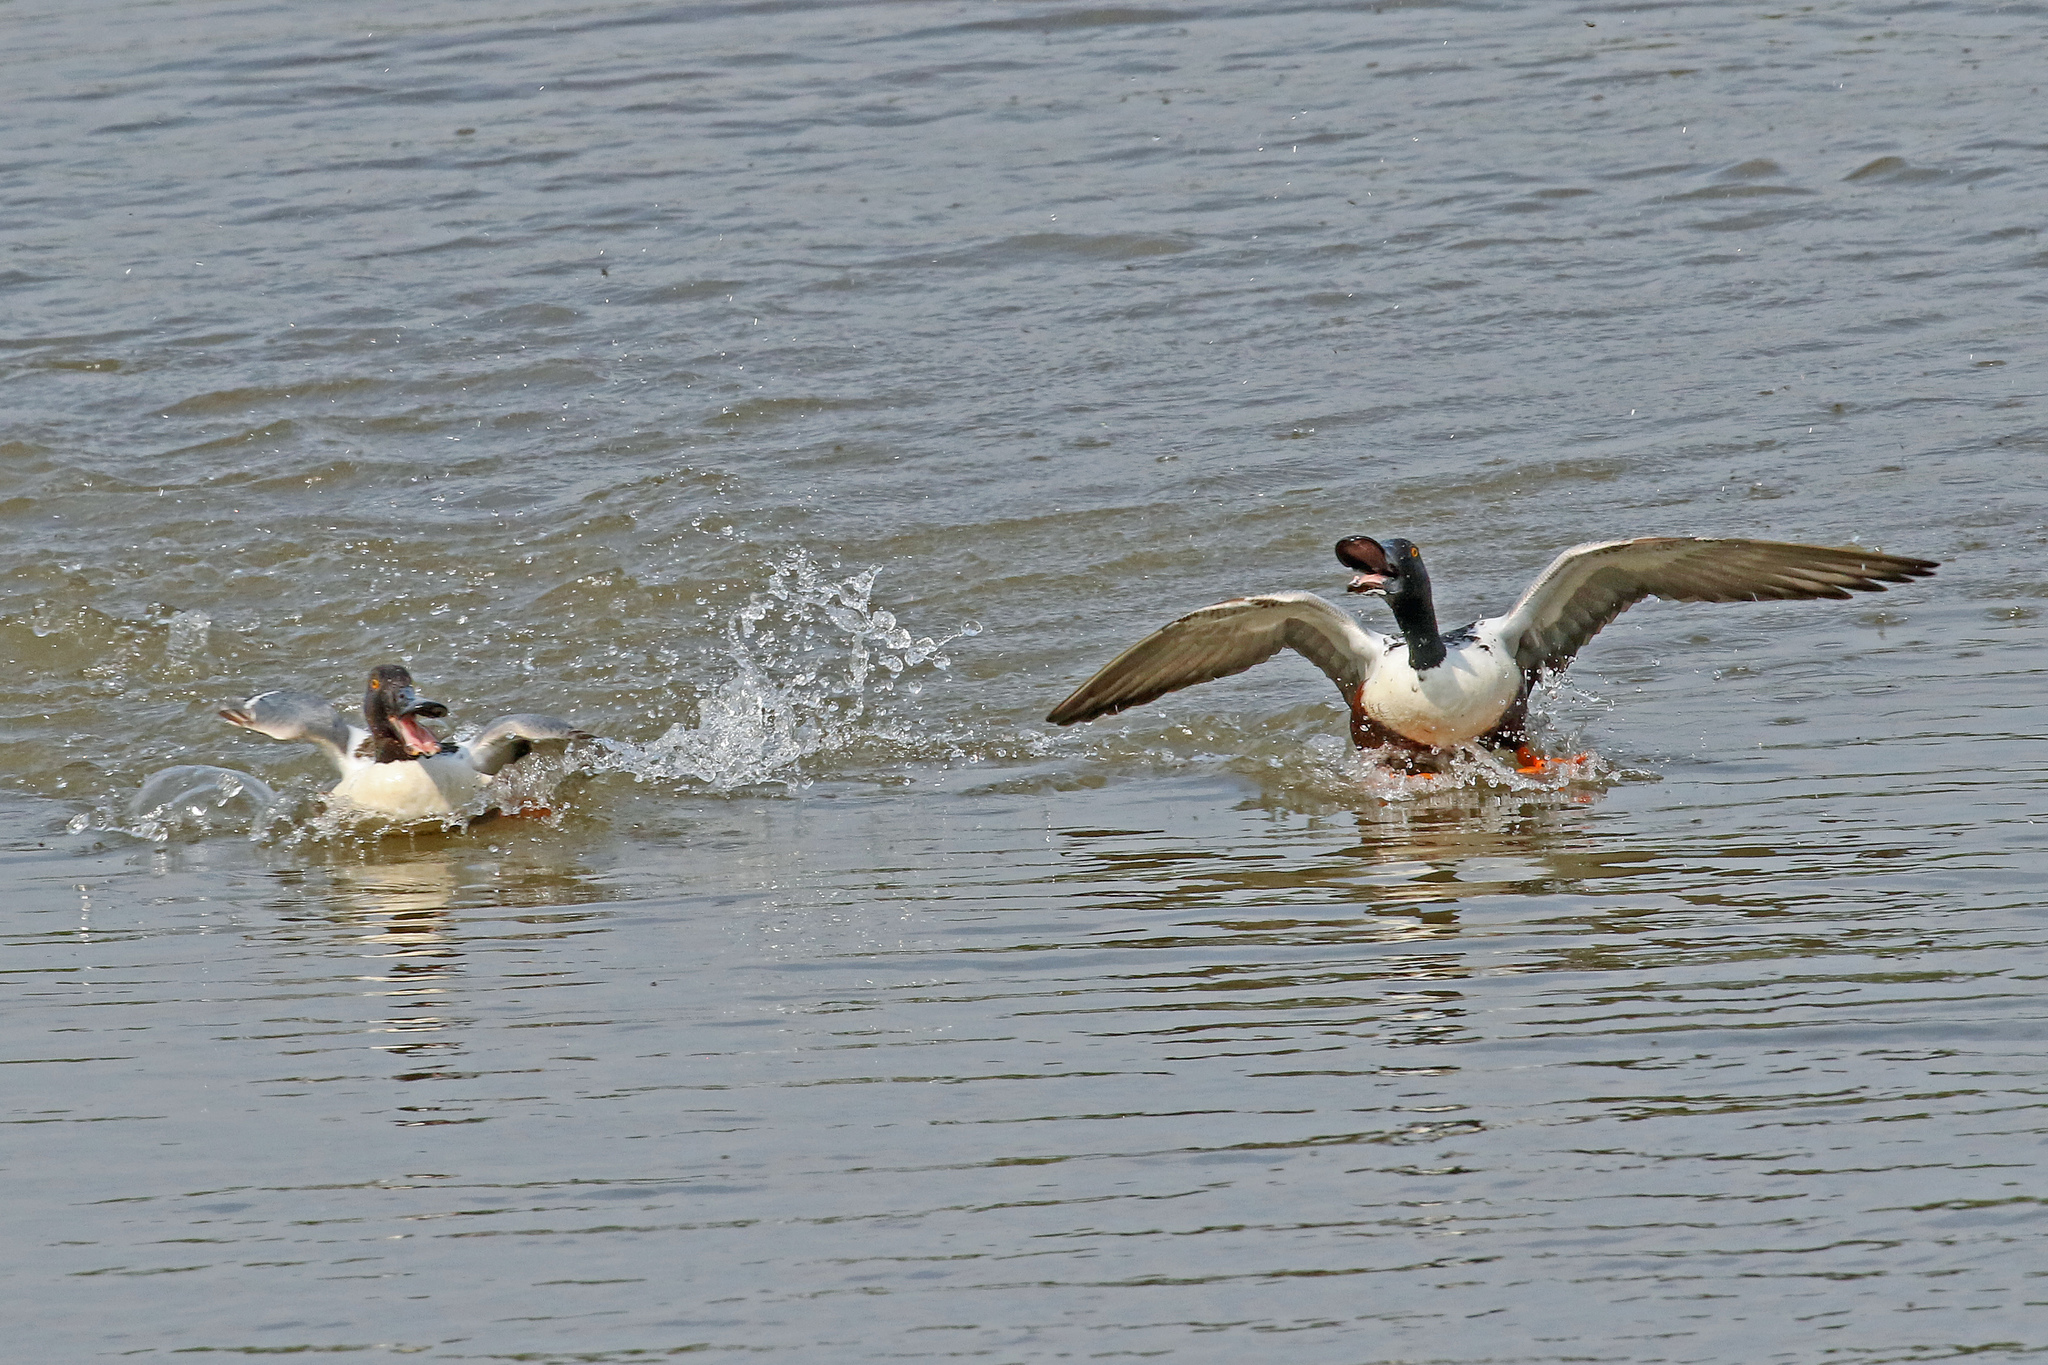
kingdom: Animalia
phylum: Chordata
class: Aves
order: Anseriformes
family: Anatidae
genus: Spatula
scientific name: Spatula clypeata
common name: Northern shoveler
